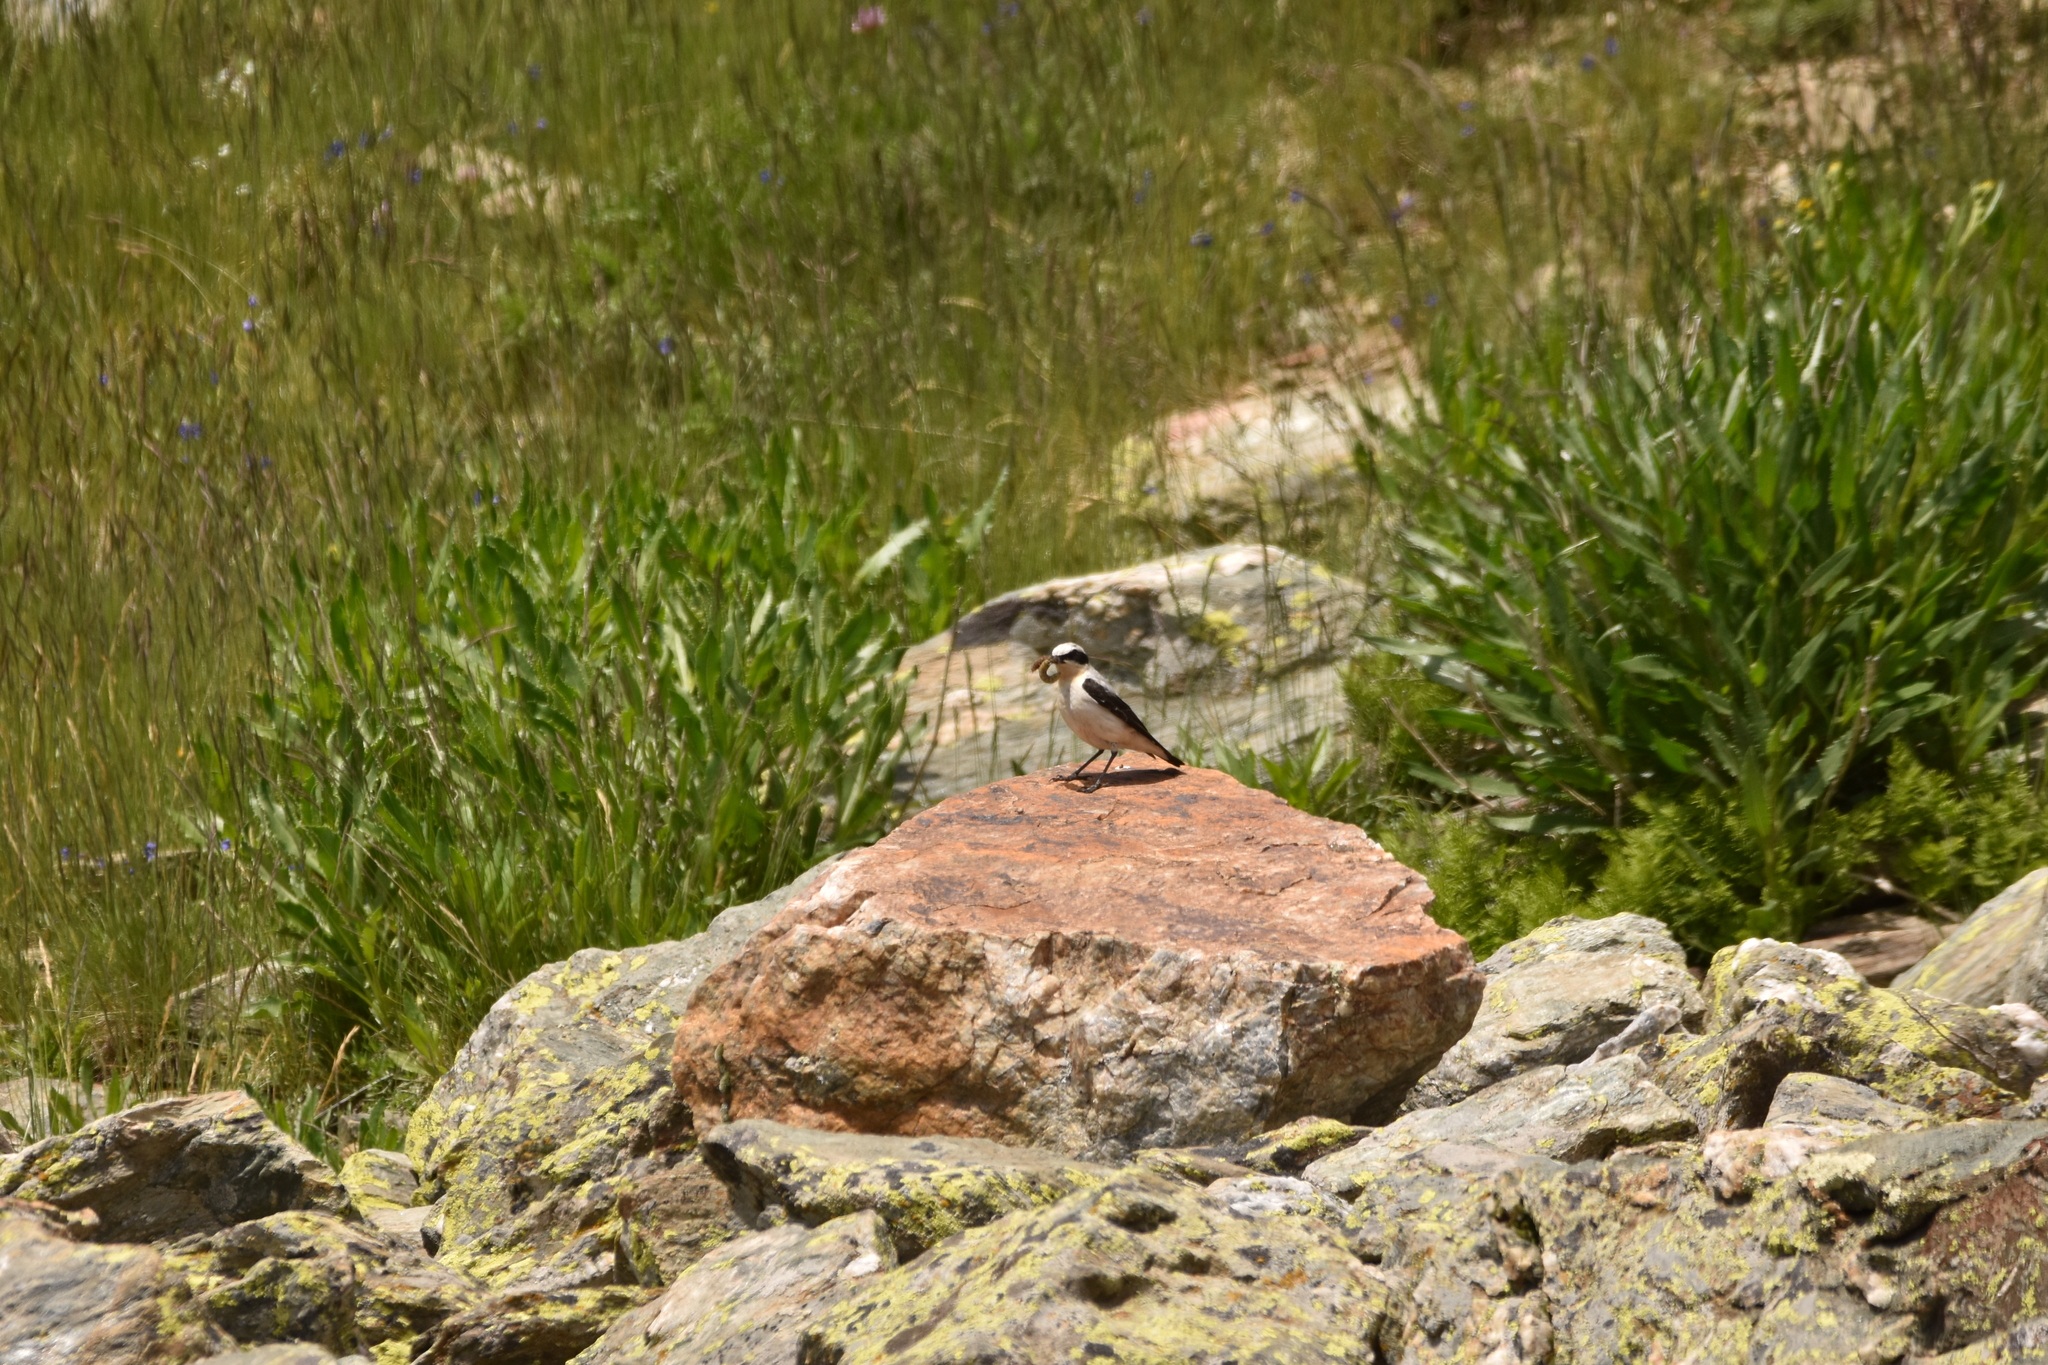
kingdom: Animalia
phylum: Chordata
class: Aves
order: Passeriformes
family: Muscicapidae
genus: Oenanthe
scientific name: Oenanthe oenanthe
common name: Northern wheatear
